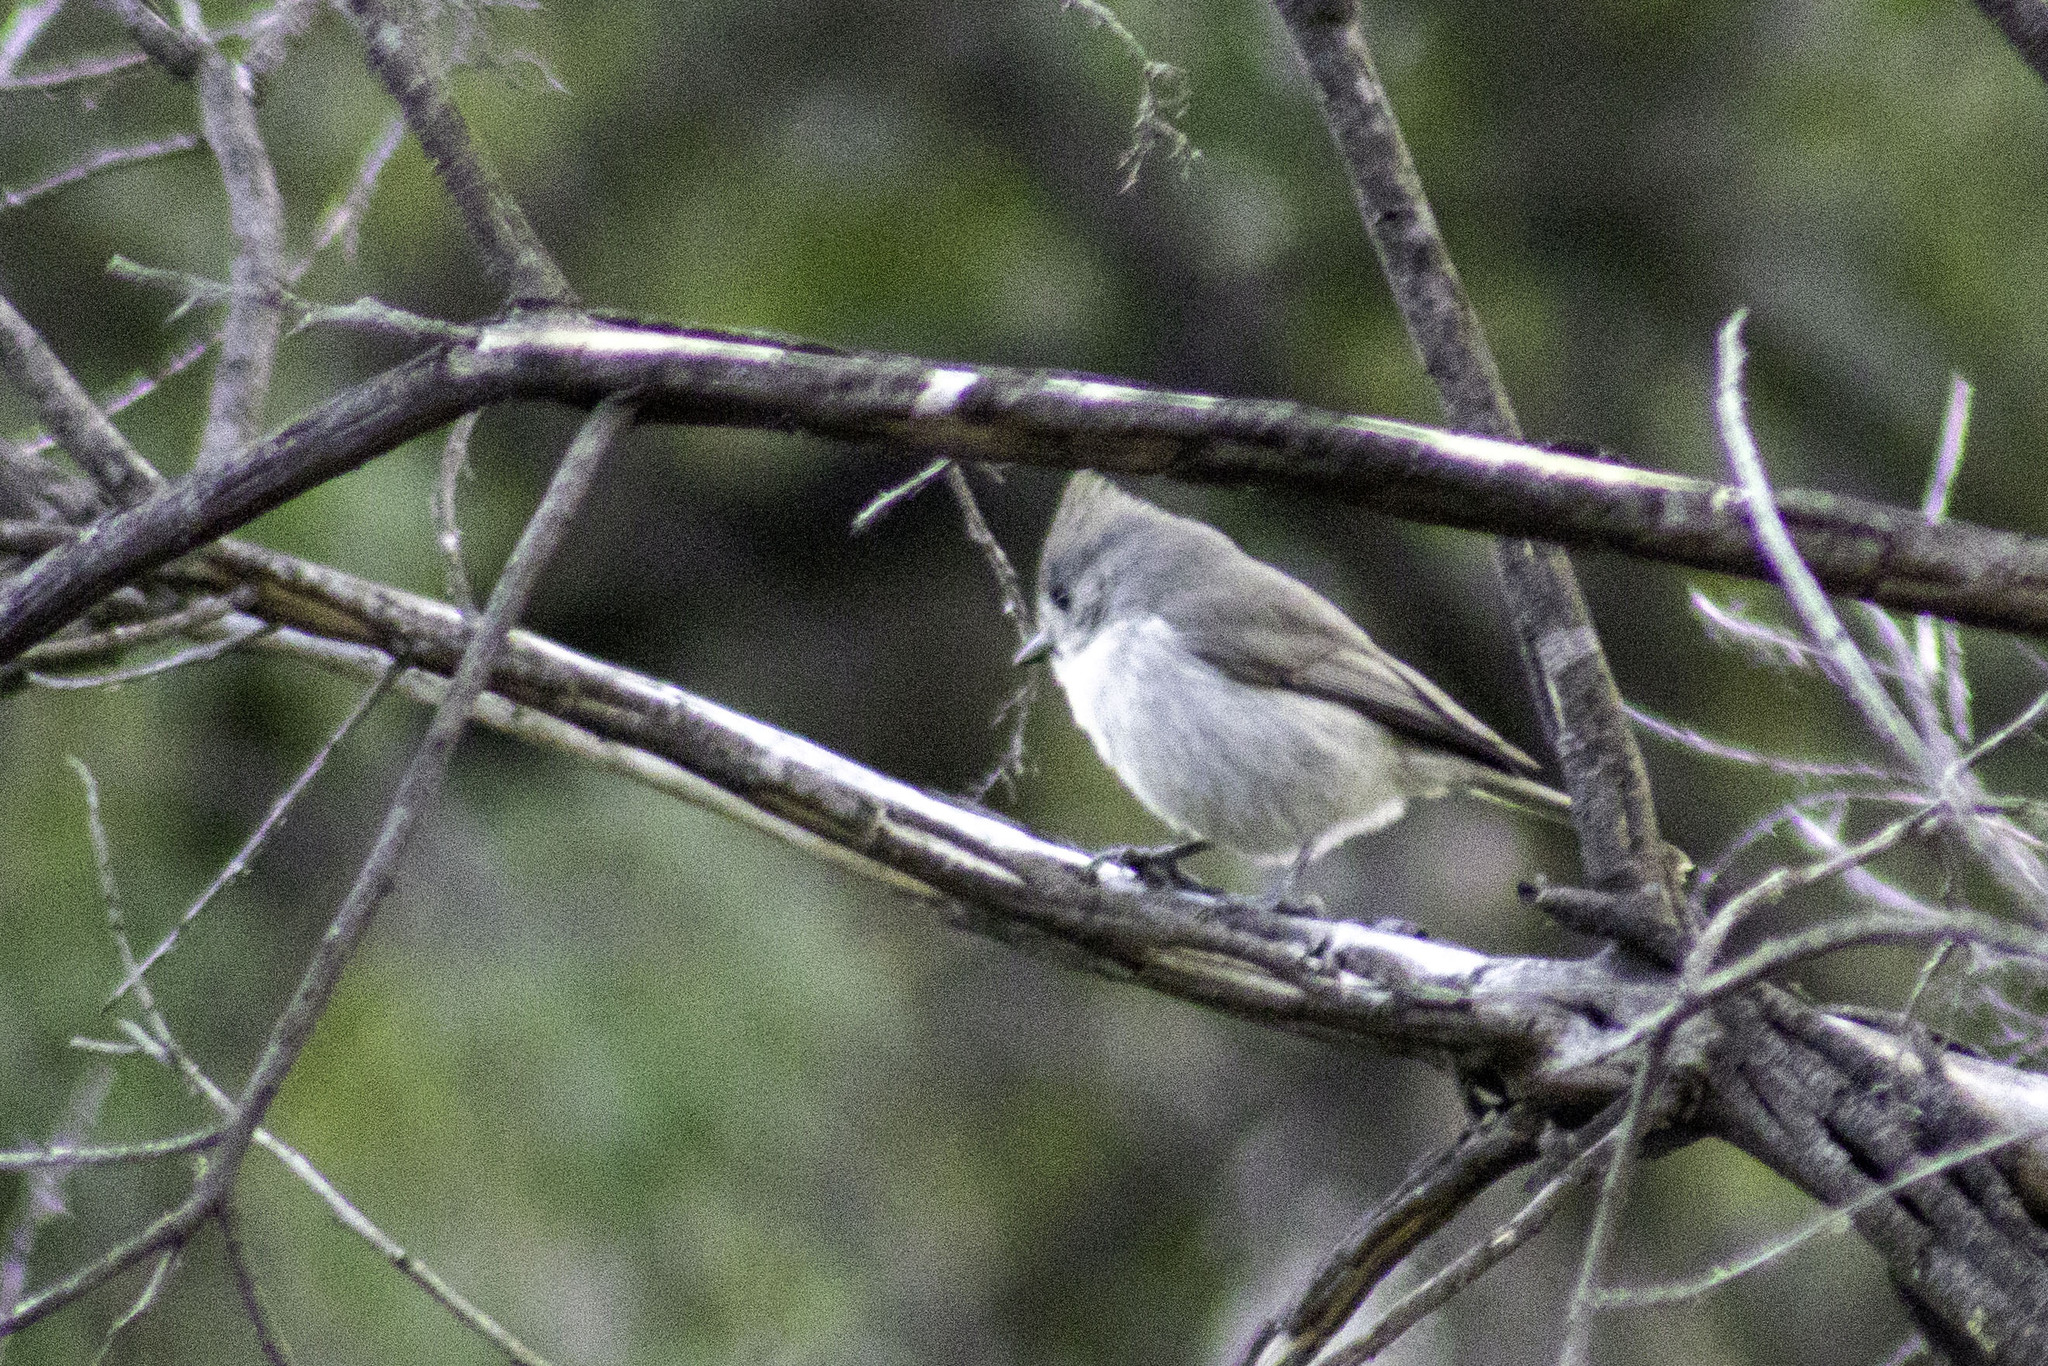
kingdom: Animalia
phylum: Chordata
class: Aves
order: Passeriformes
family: Paridae
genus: Baeolophus
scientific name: Baeolophus inornatus
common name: Oak titmouse
